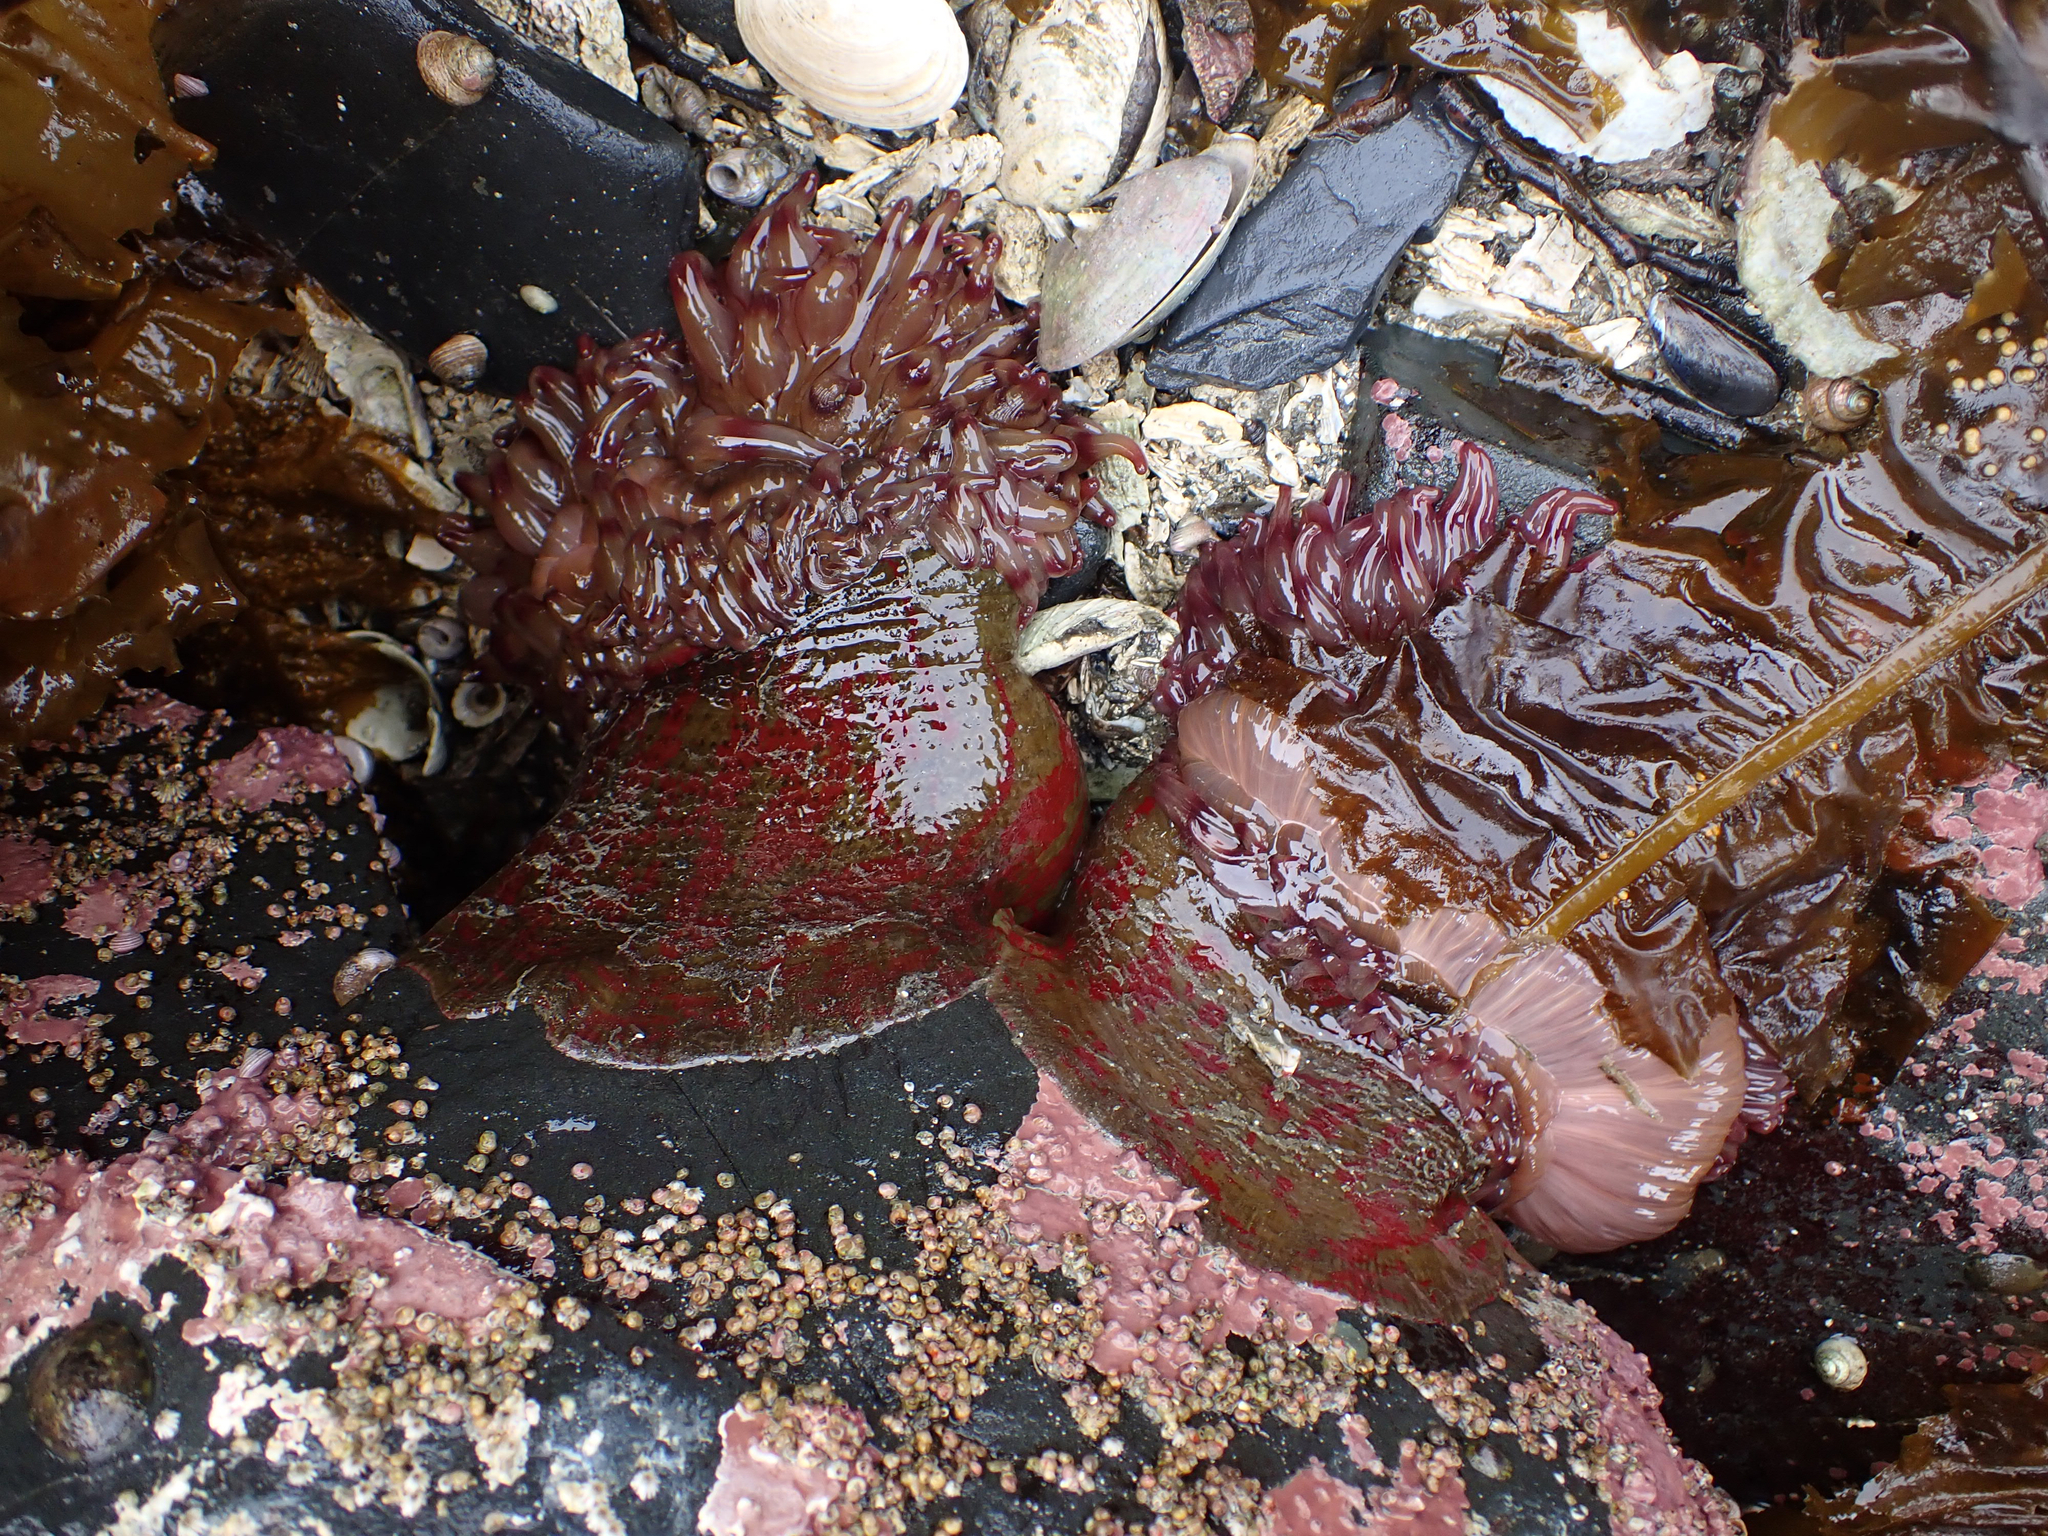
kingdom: Animalia
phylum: Cnidaria
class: Anthozoa
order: Actiniaria
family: Actiniidae
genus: Urticina
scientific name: Urticina grebelnyi
